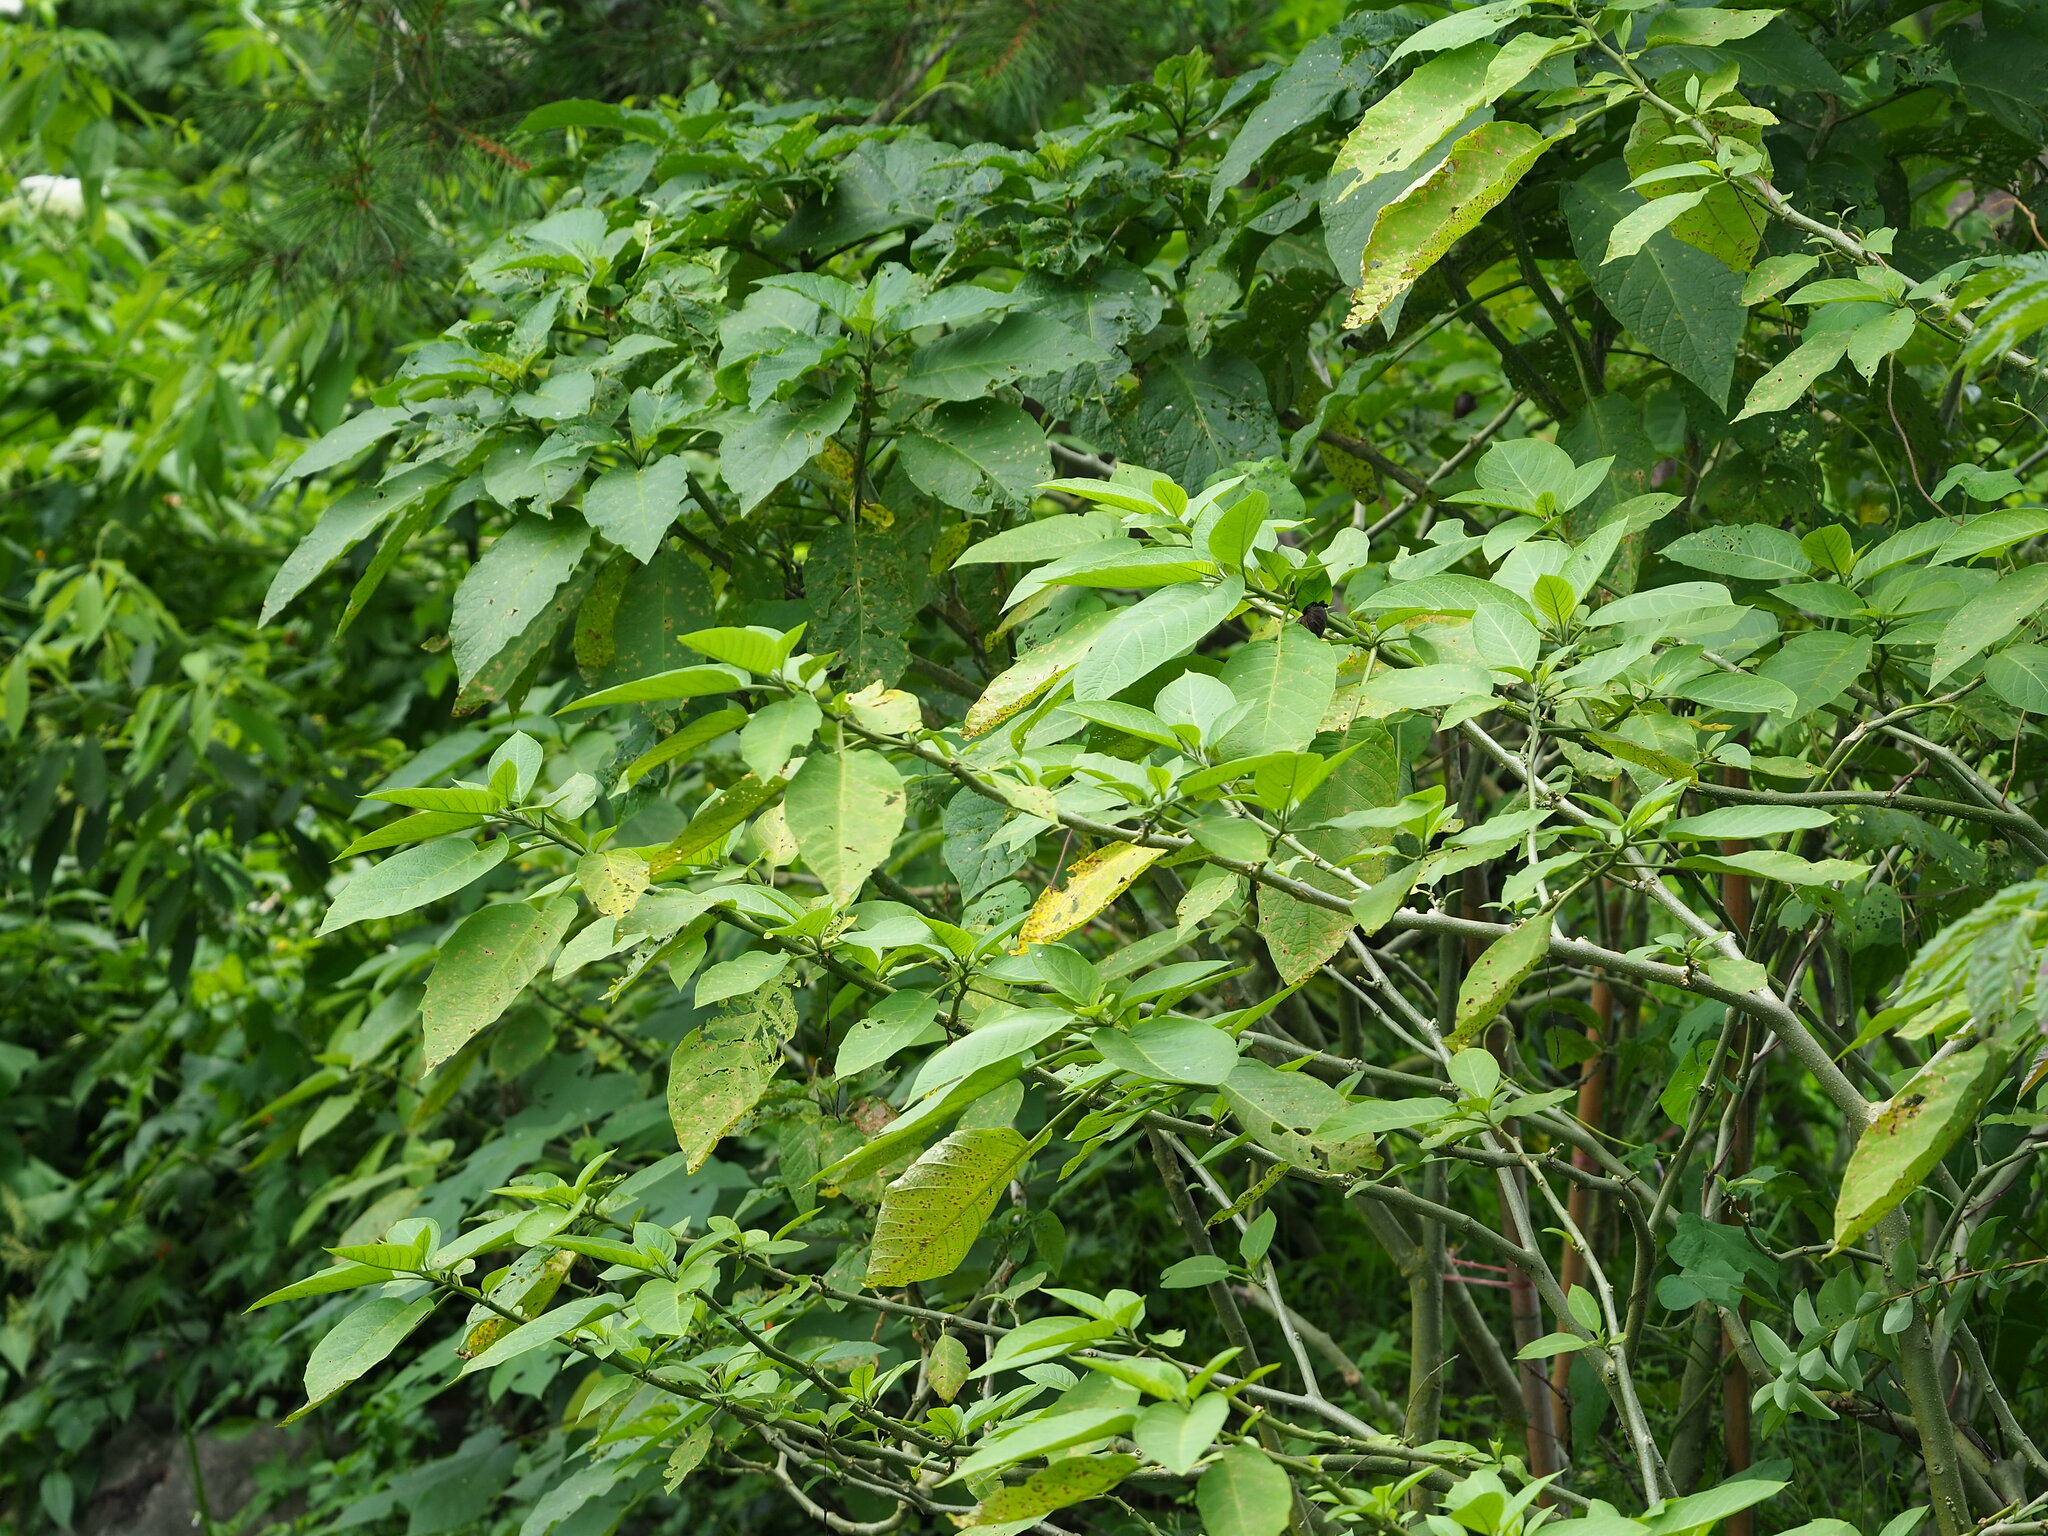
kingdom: Plantae
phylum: Tracheophyta
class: Magnoliopsida
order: Solanales
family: Solanaceae
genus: Brugmansia
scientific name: Brugmansia suaveolens
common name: Angel's tears
